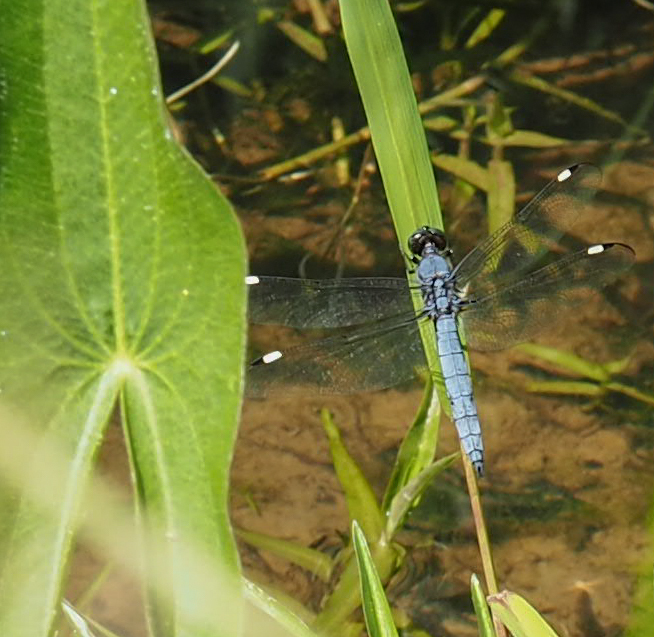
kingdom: Animalia
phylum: Arthropoda
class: Insecta
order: Odonata
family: Libellulidae
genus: Libellula
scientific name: Libellula cyanea
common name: Spangled skimmer
